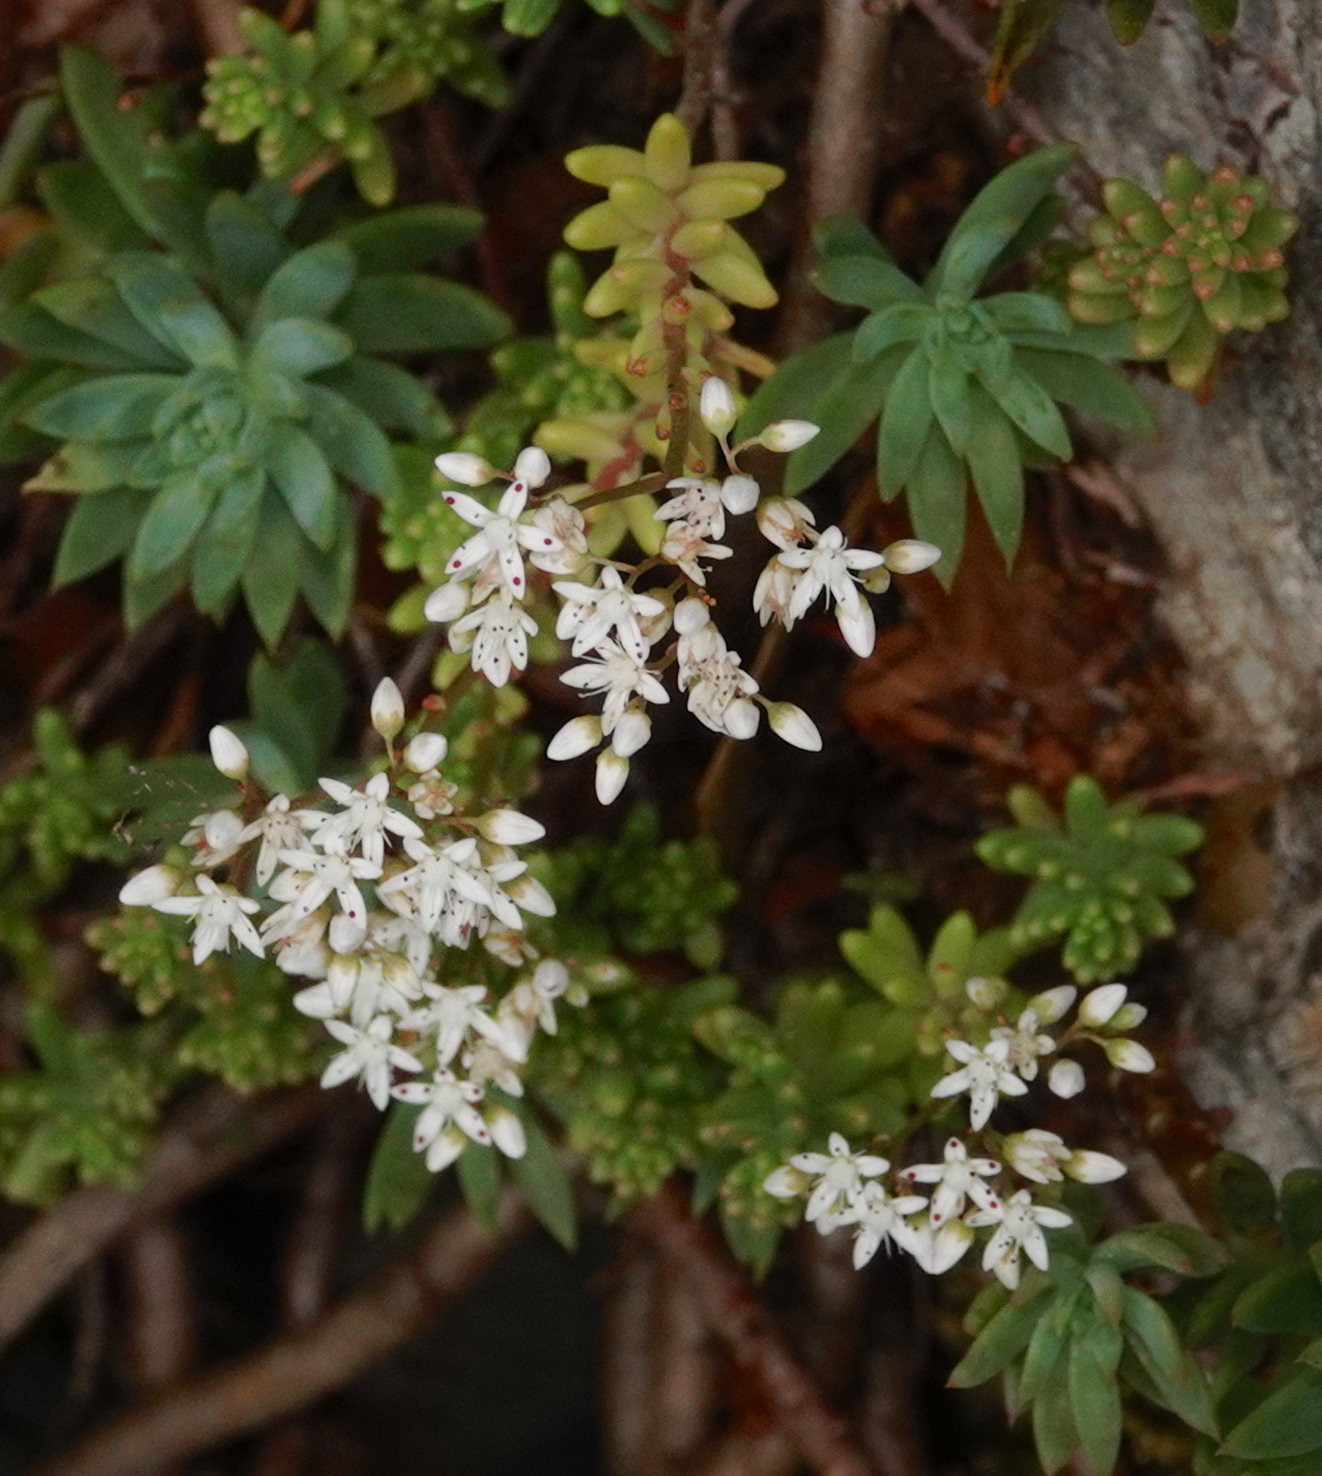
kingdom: Plantae
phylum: Tracheophyta
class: Magnoliopsida
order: Saxifragales
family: Crassulaceae
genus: Sedum
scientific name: Sedum album
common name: White stonecrop
